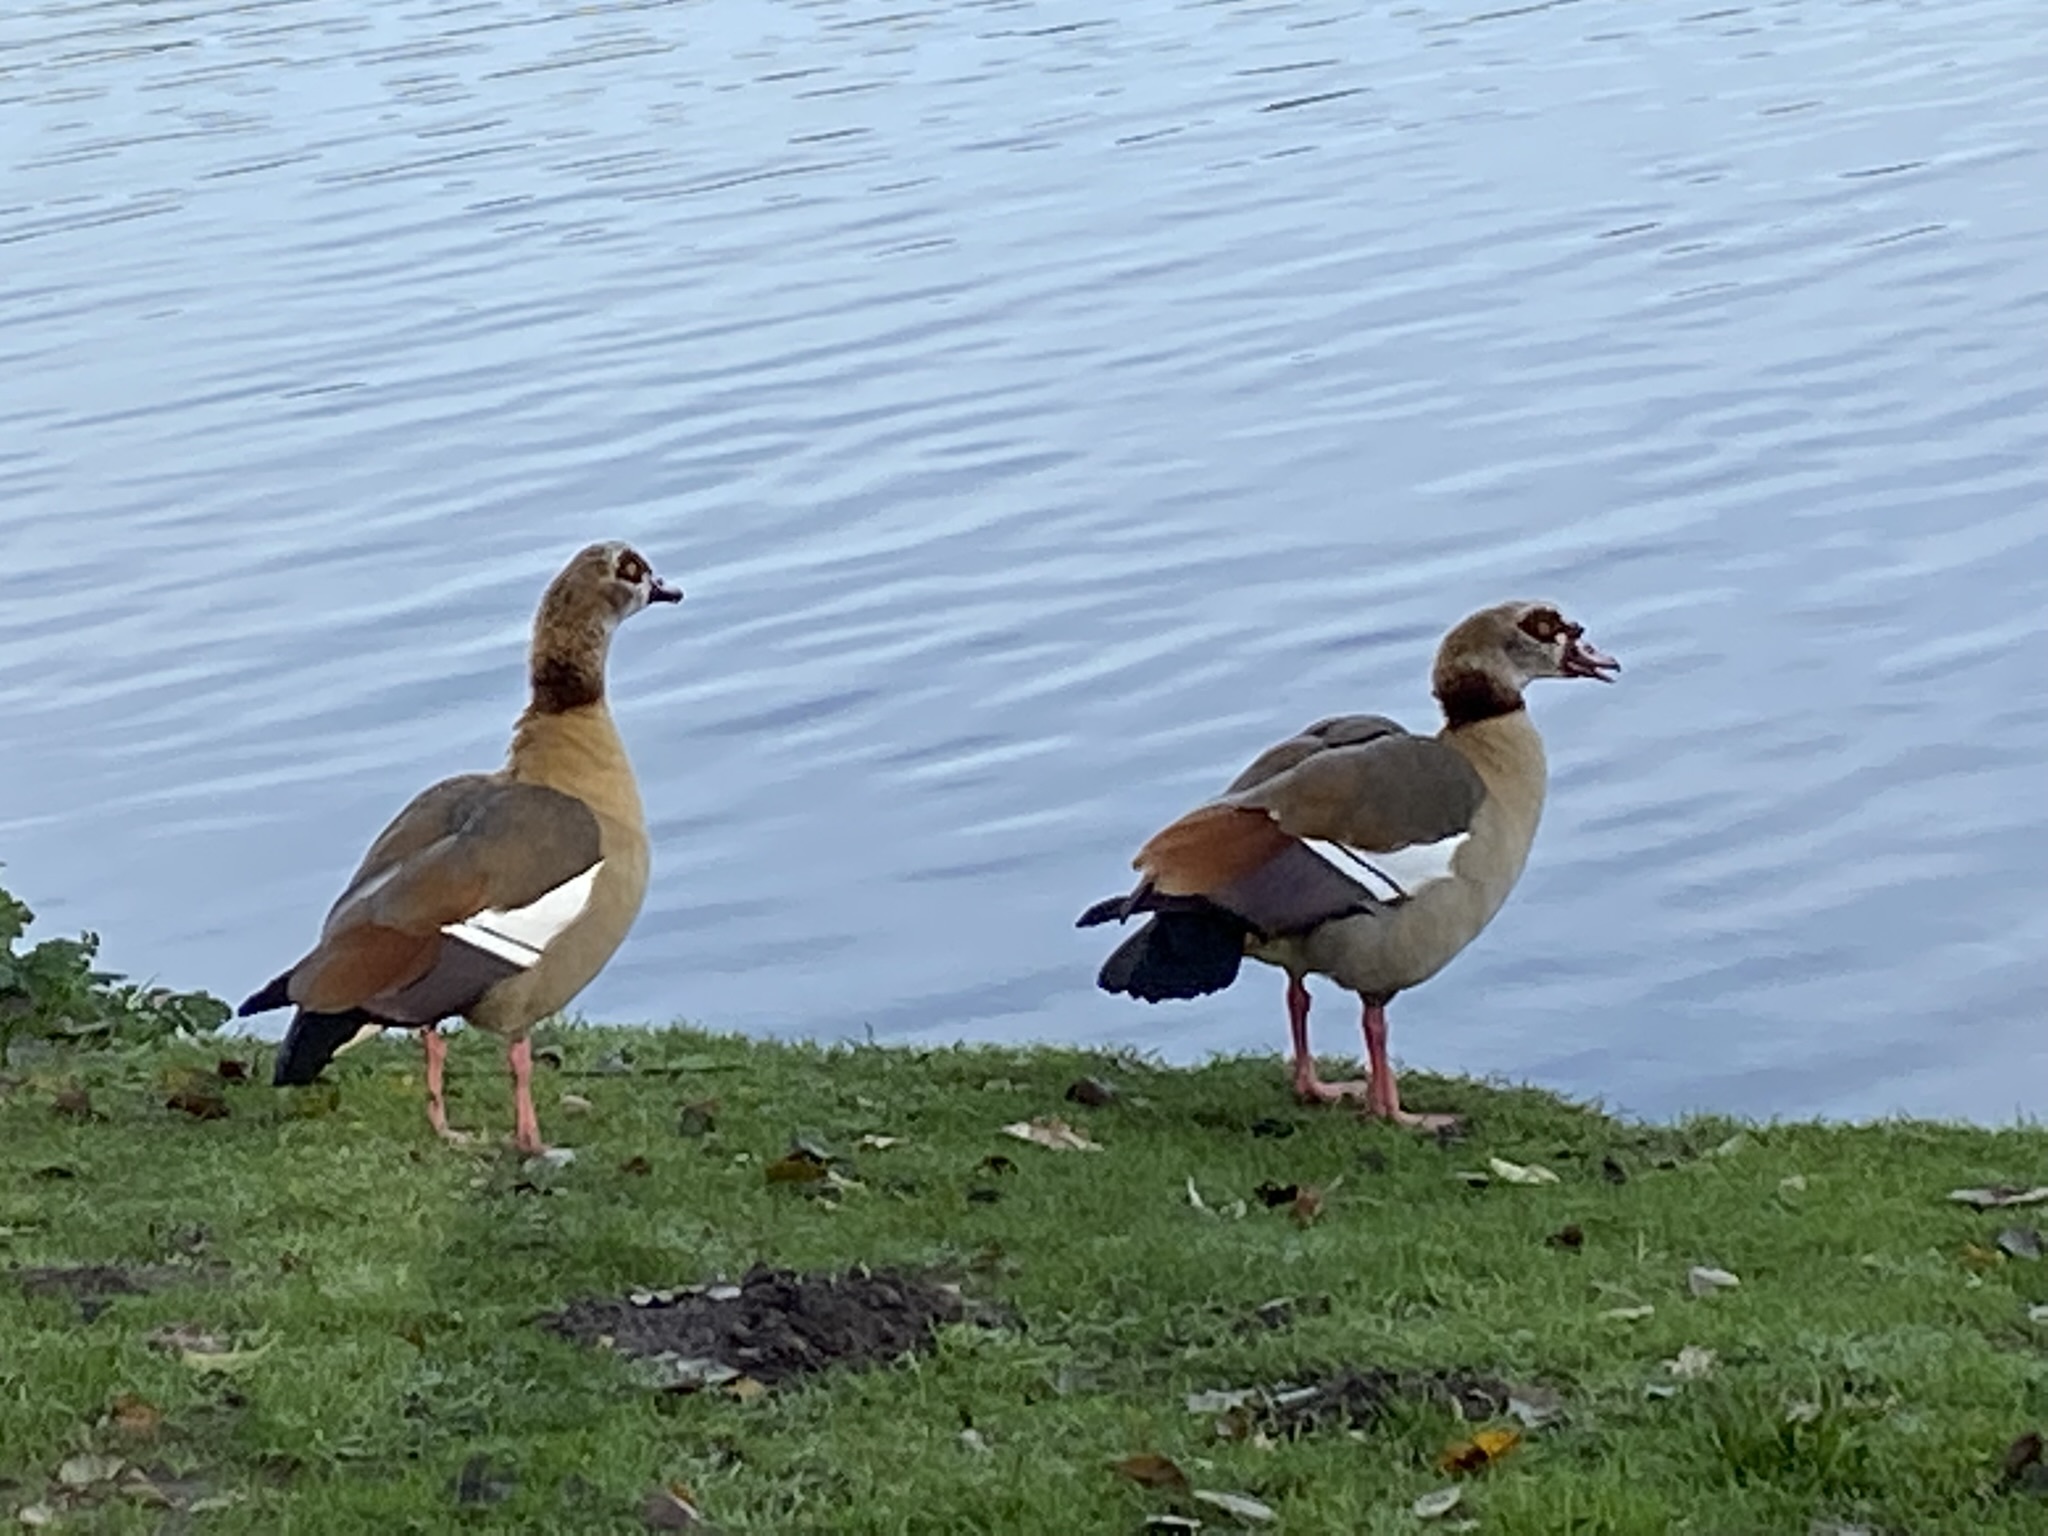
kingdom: Animalia
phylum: Chordata
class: Aves
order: Anseriformes
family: Anatidae
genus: Alopochen
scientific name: Alopochen aegyptiaca
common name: Egyptian goose
